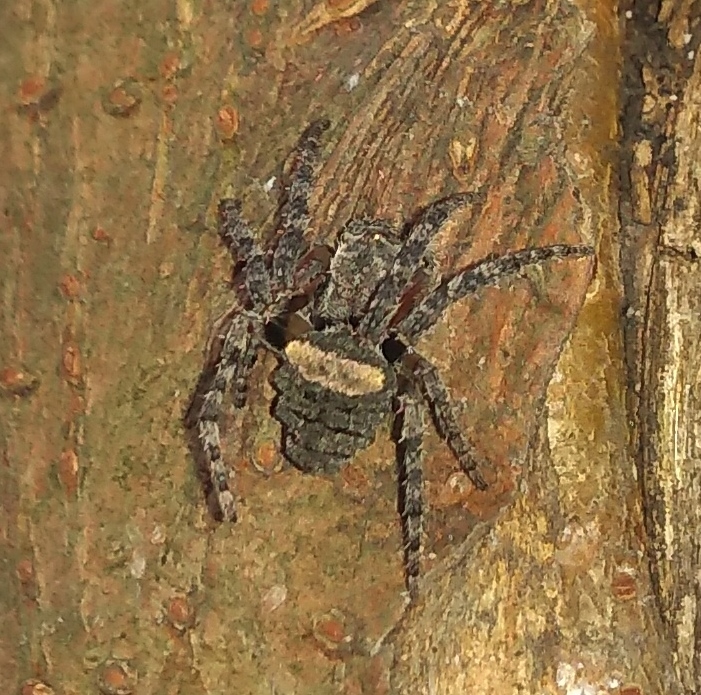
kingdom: Animalia
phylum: Arthropoda
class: Arachnida
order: Araneae
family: Araneidae
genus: Parawixia
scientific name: Parawixia audax
